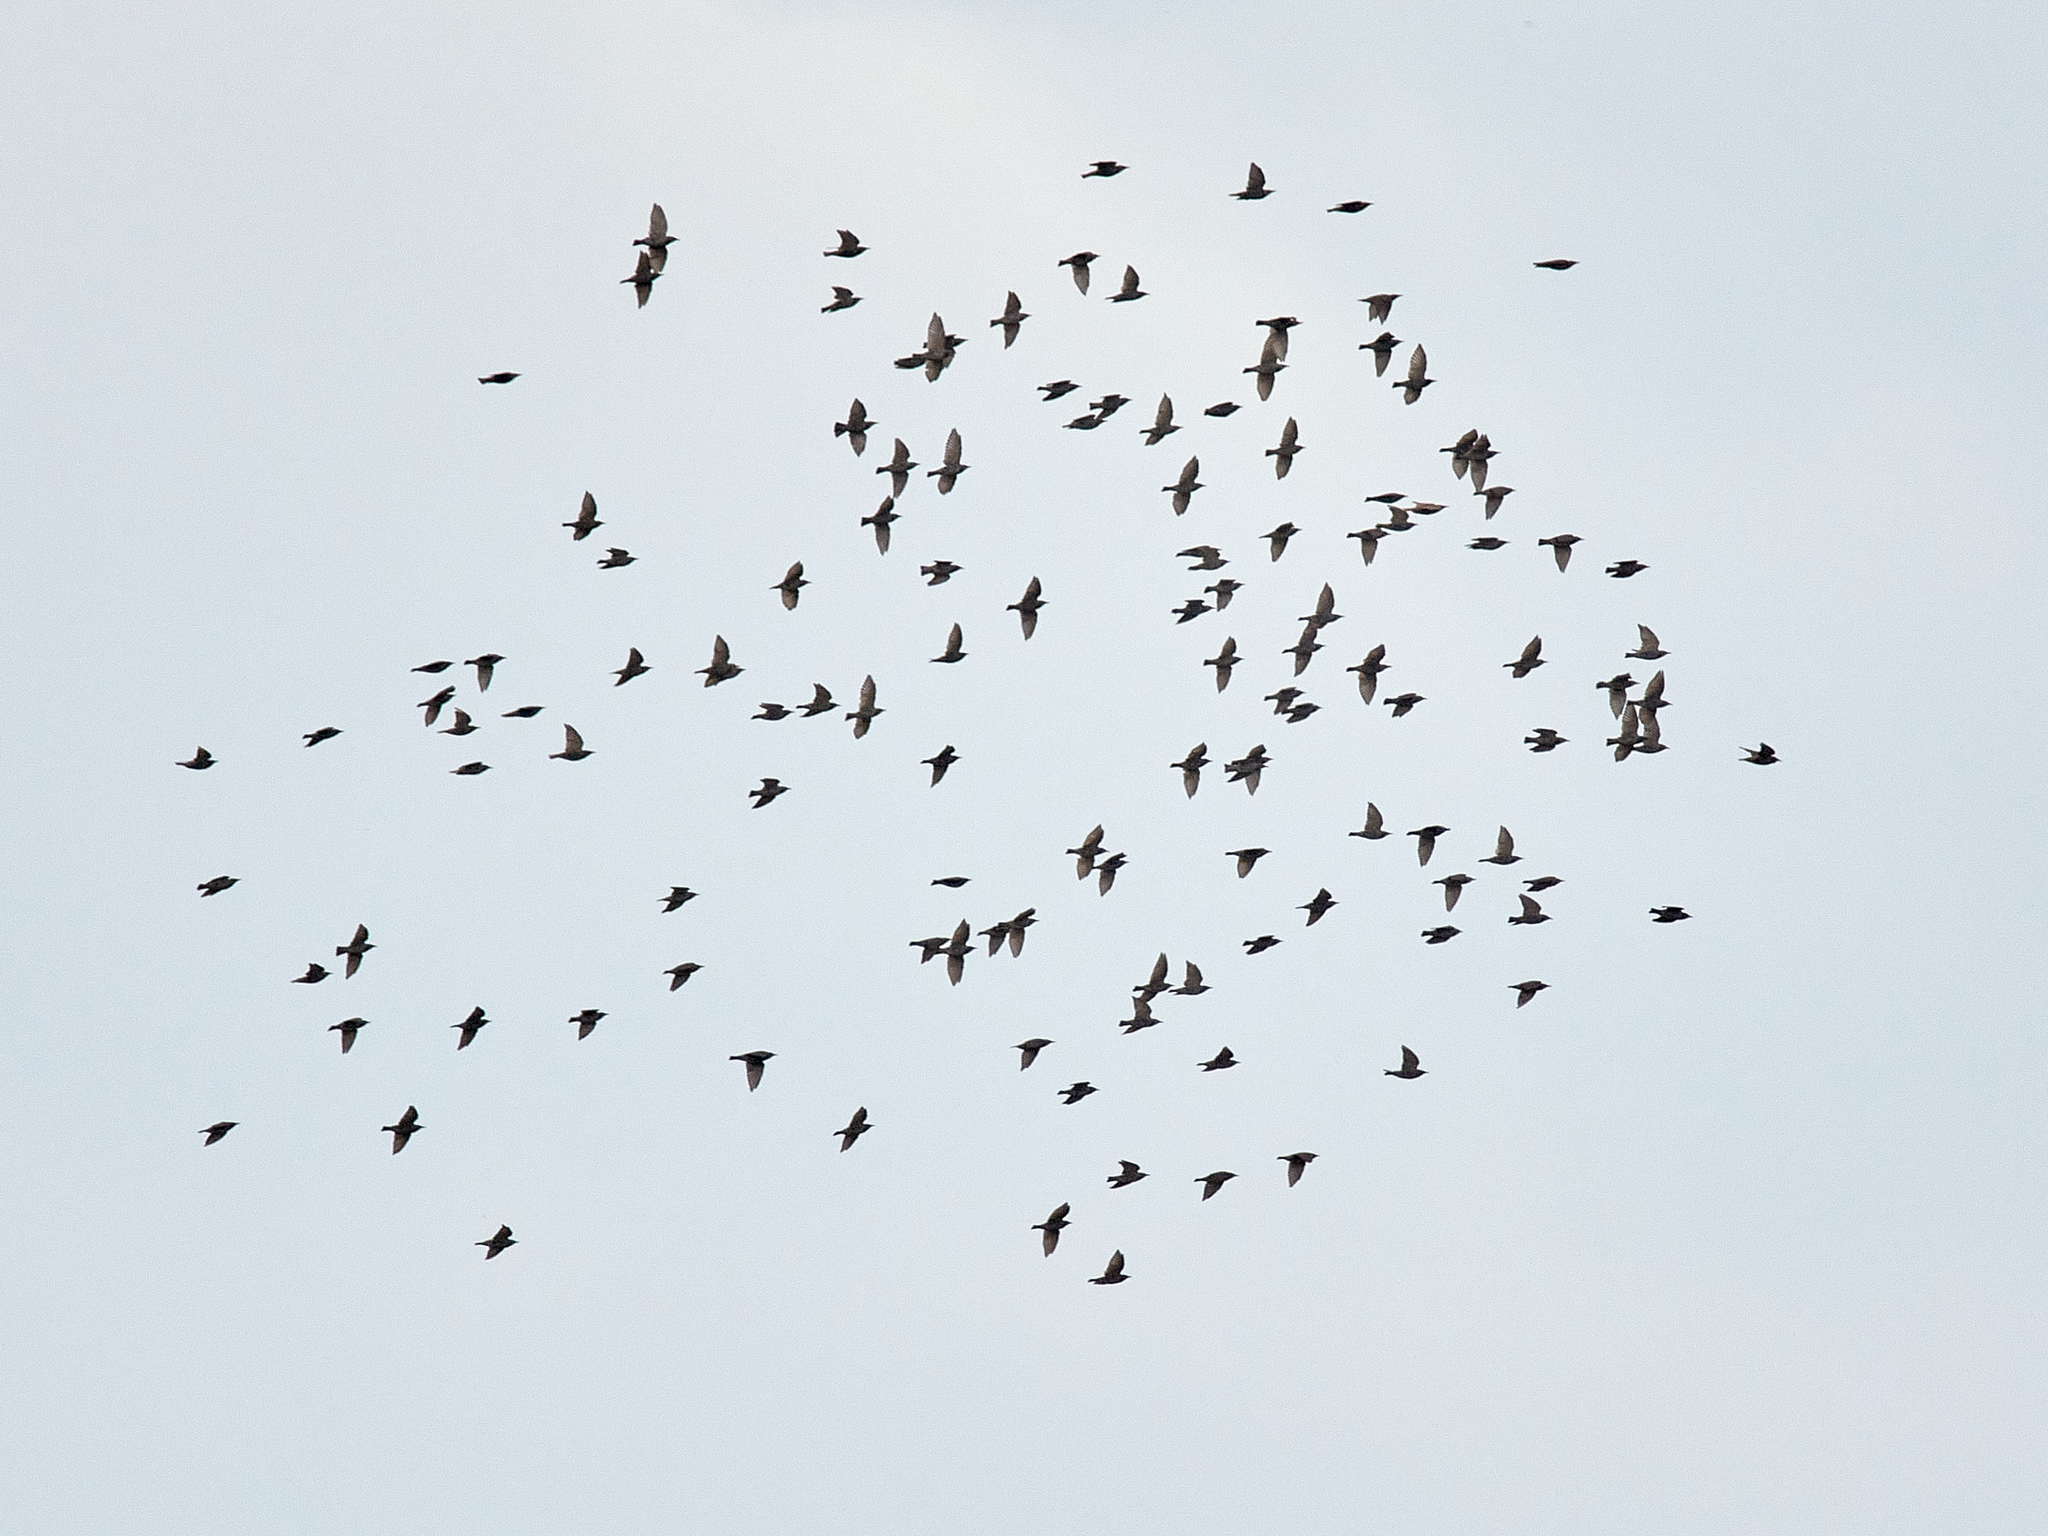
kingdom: Animalia
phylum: Chordata
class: Aves
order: Passeriformes
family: Sturnidae
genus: Sturnus
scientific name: Sturnus vulgaris
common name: Common starling
